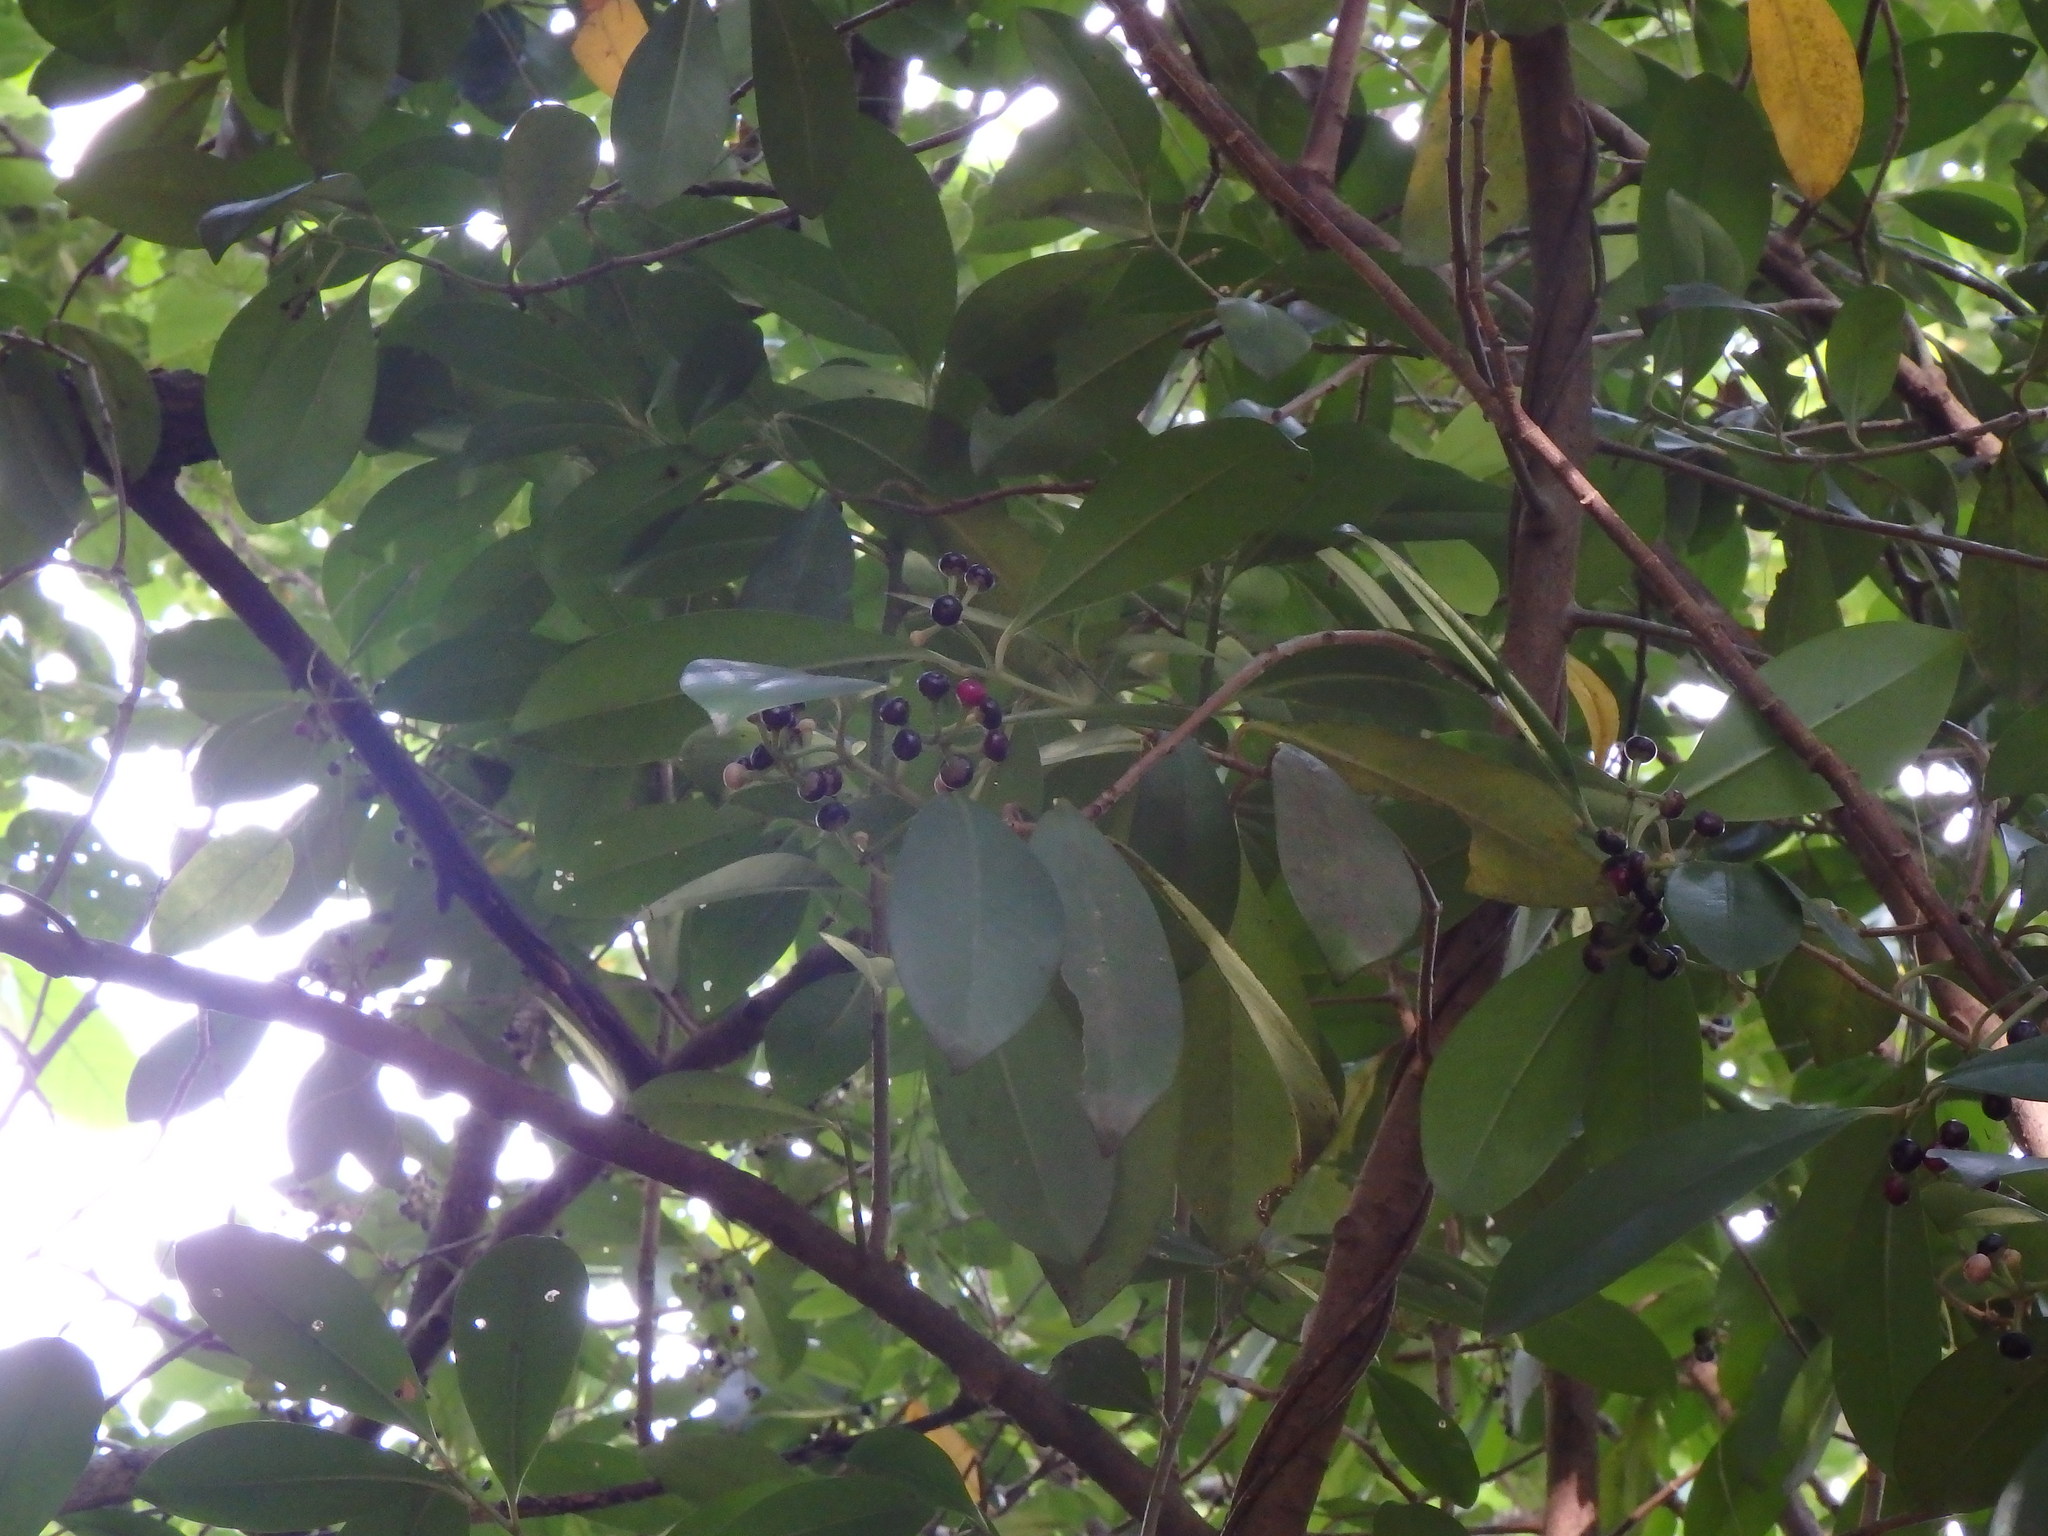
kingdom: Plantae
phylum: Tracheophyta
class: Magnoliopsida
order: Ericales
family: Primulaceae
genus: Ardisia
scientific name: Ardisia elliptica
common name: Shoebutton
